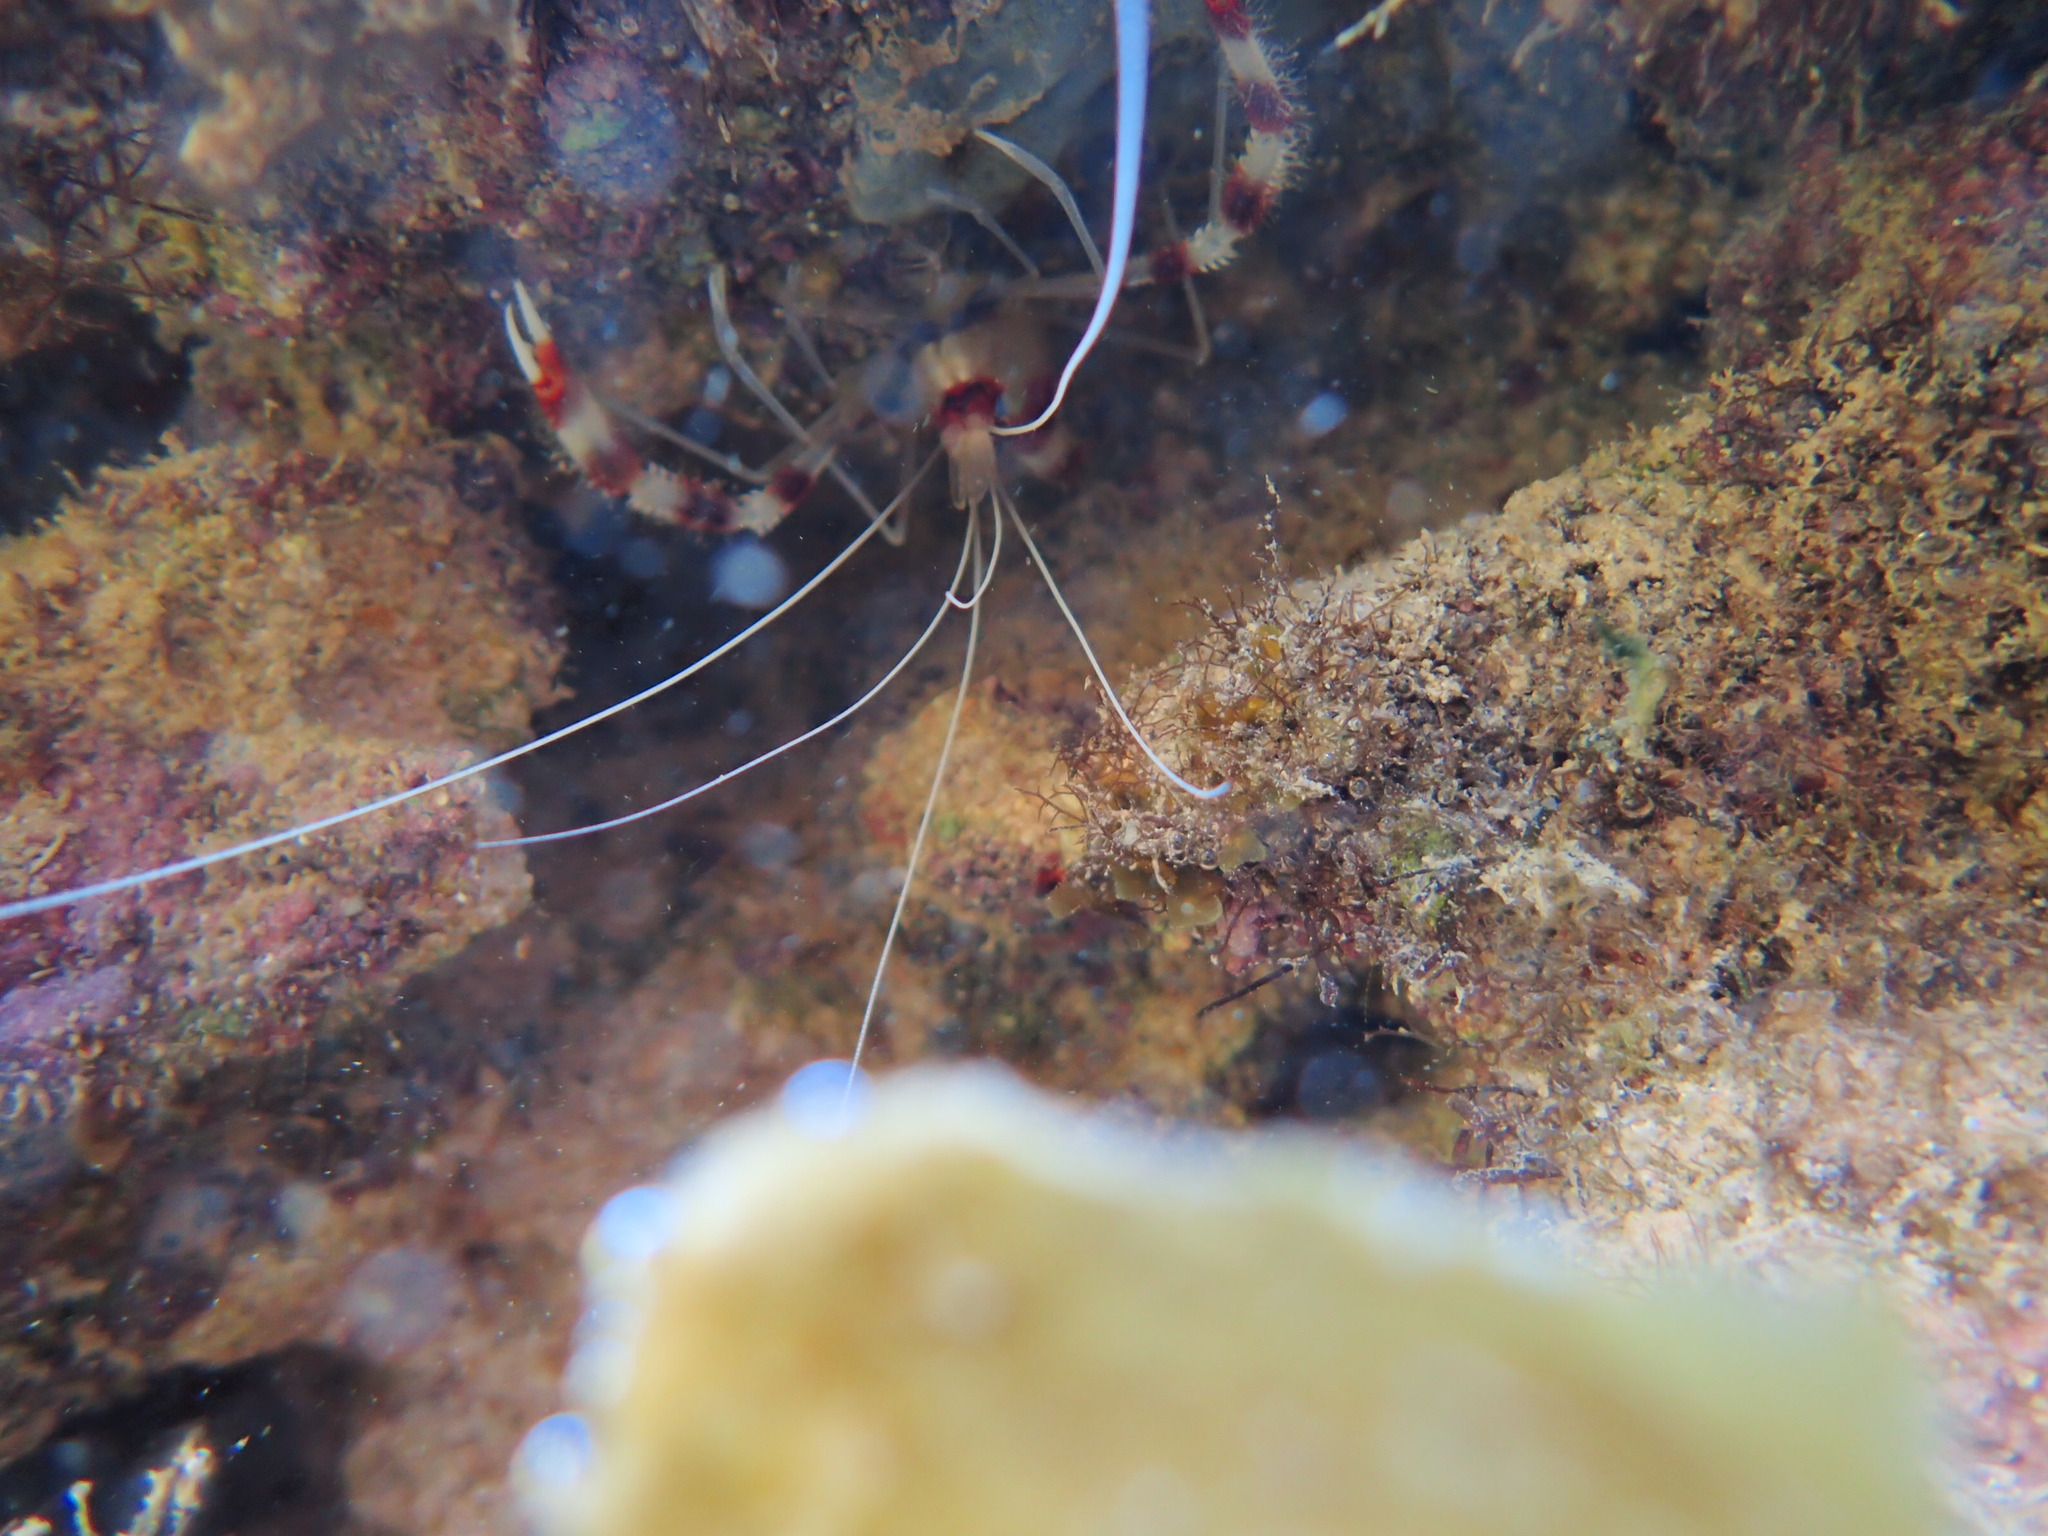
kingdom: Animalia
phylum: Arthropoda
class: Malacostraca
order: Decapoda
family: Stenopodidae
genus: Stenopus
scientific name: Stenopus hispidus
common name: Banded coral shrimp
